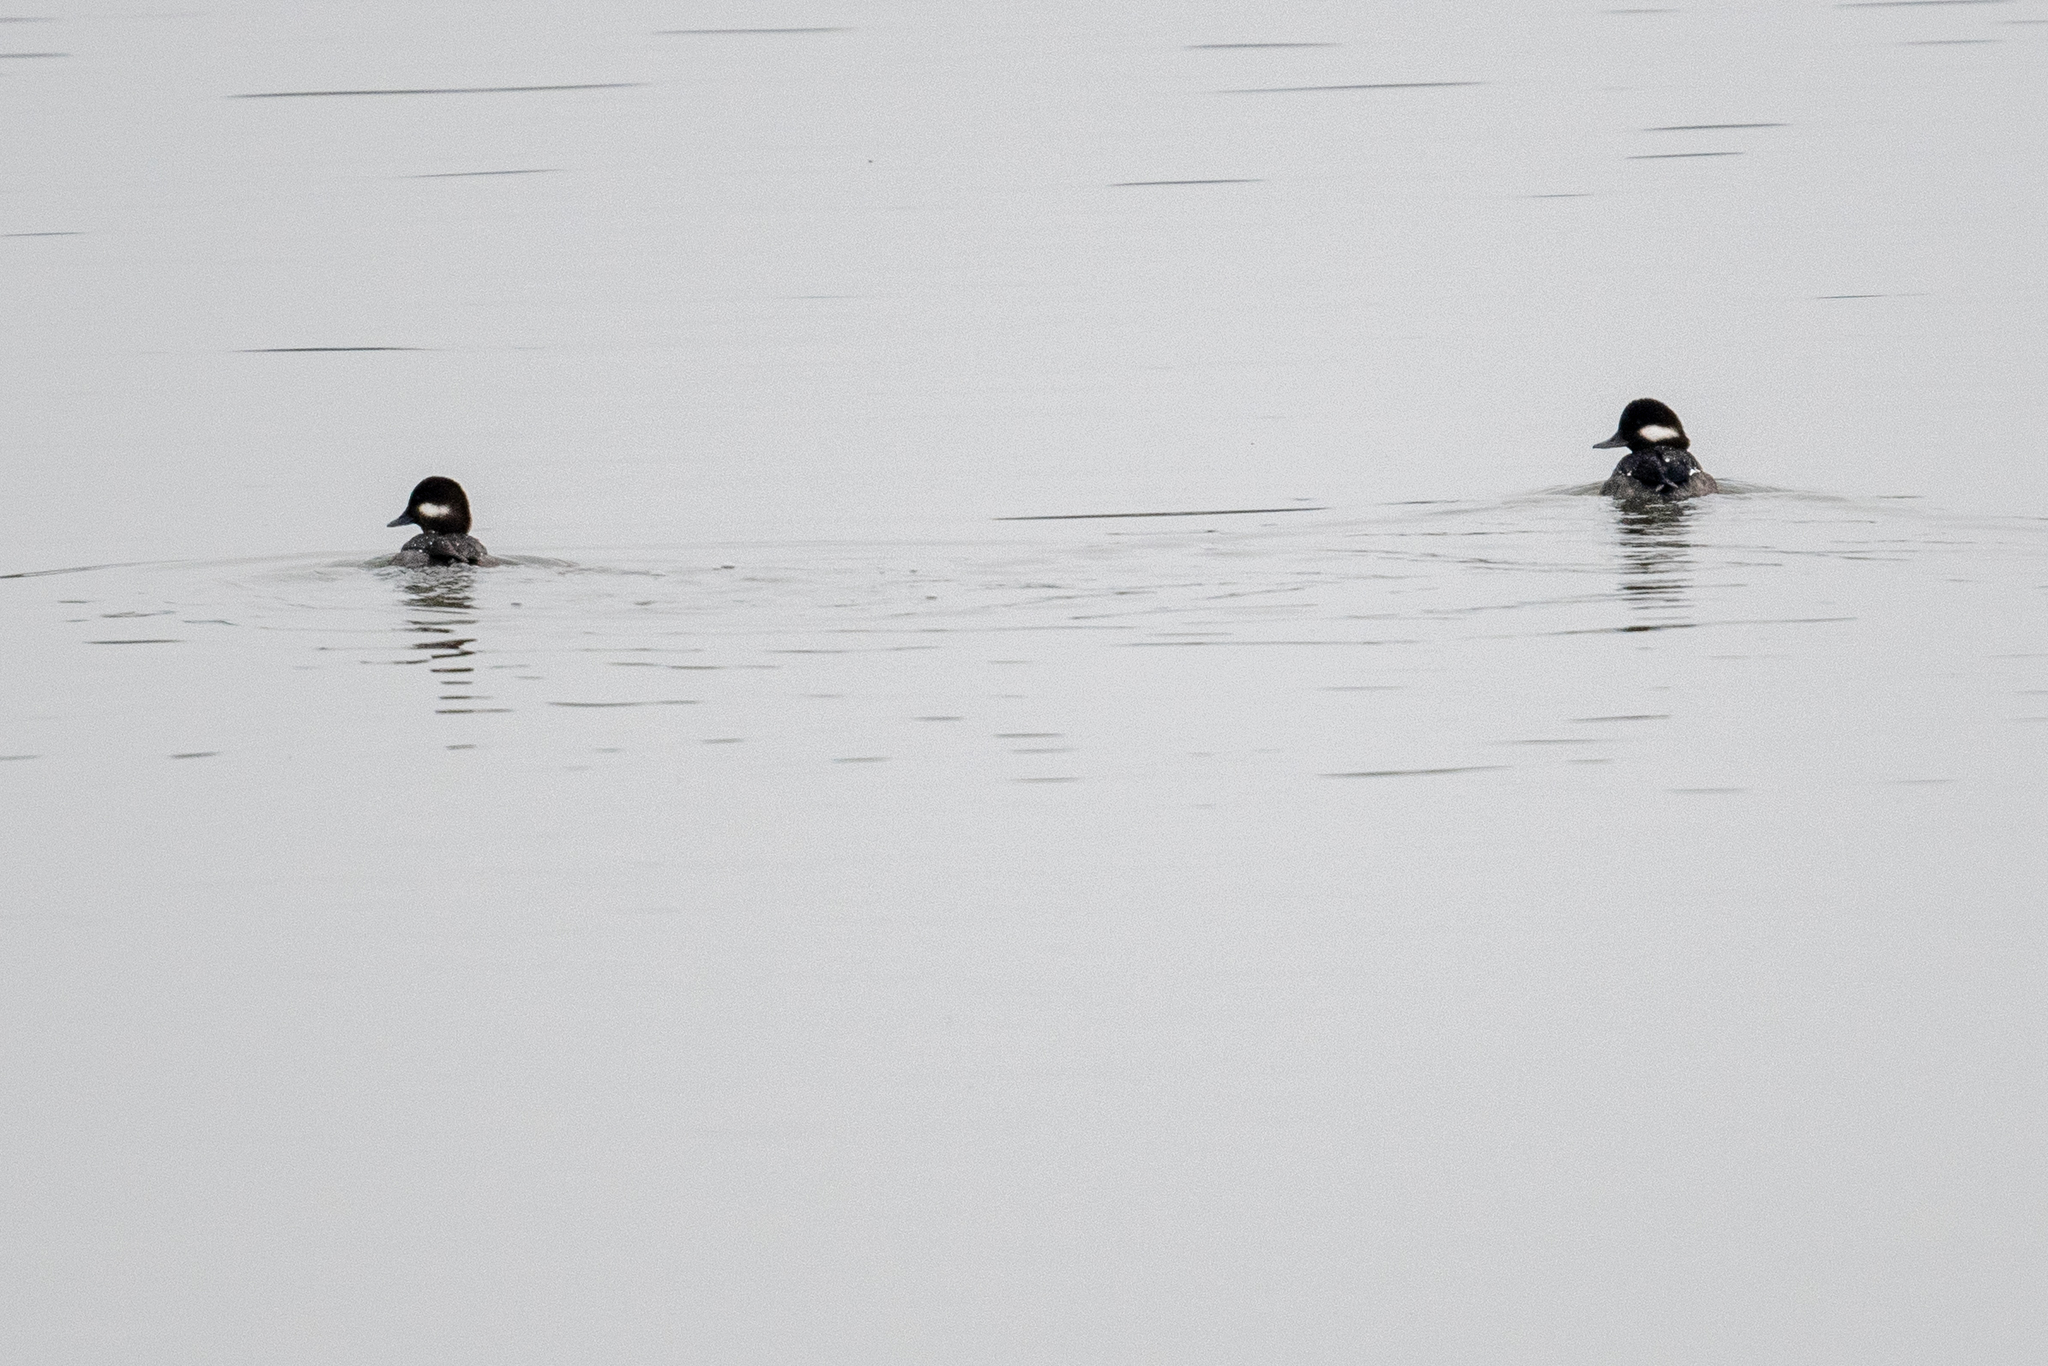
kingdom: Animalia
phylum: Chordata
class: Aves
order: Anseriformes
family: Anatidae
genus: Bucephala
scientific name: Bucephala albeola
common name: Bufflehead
